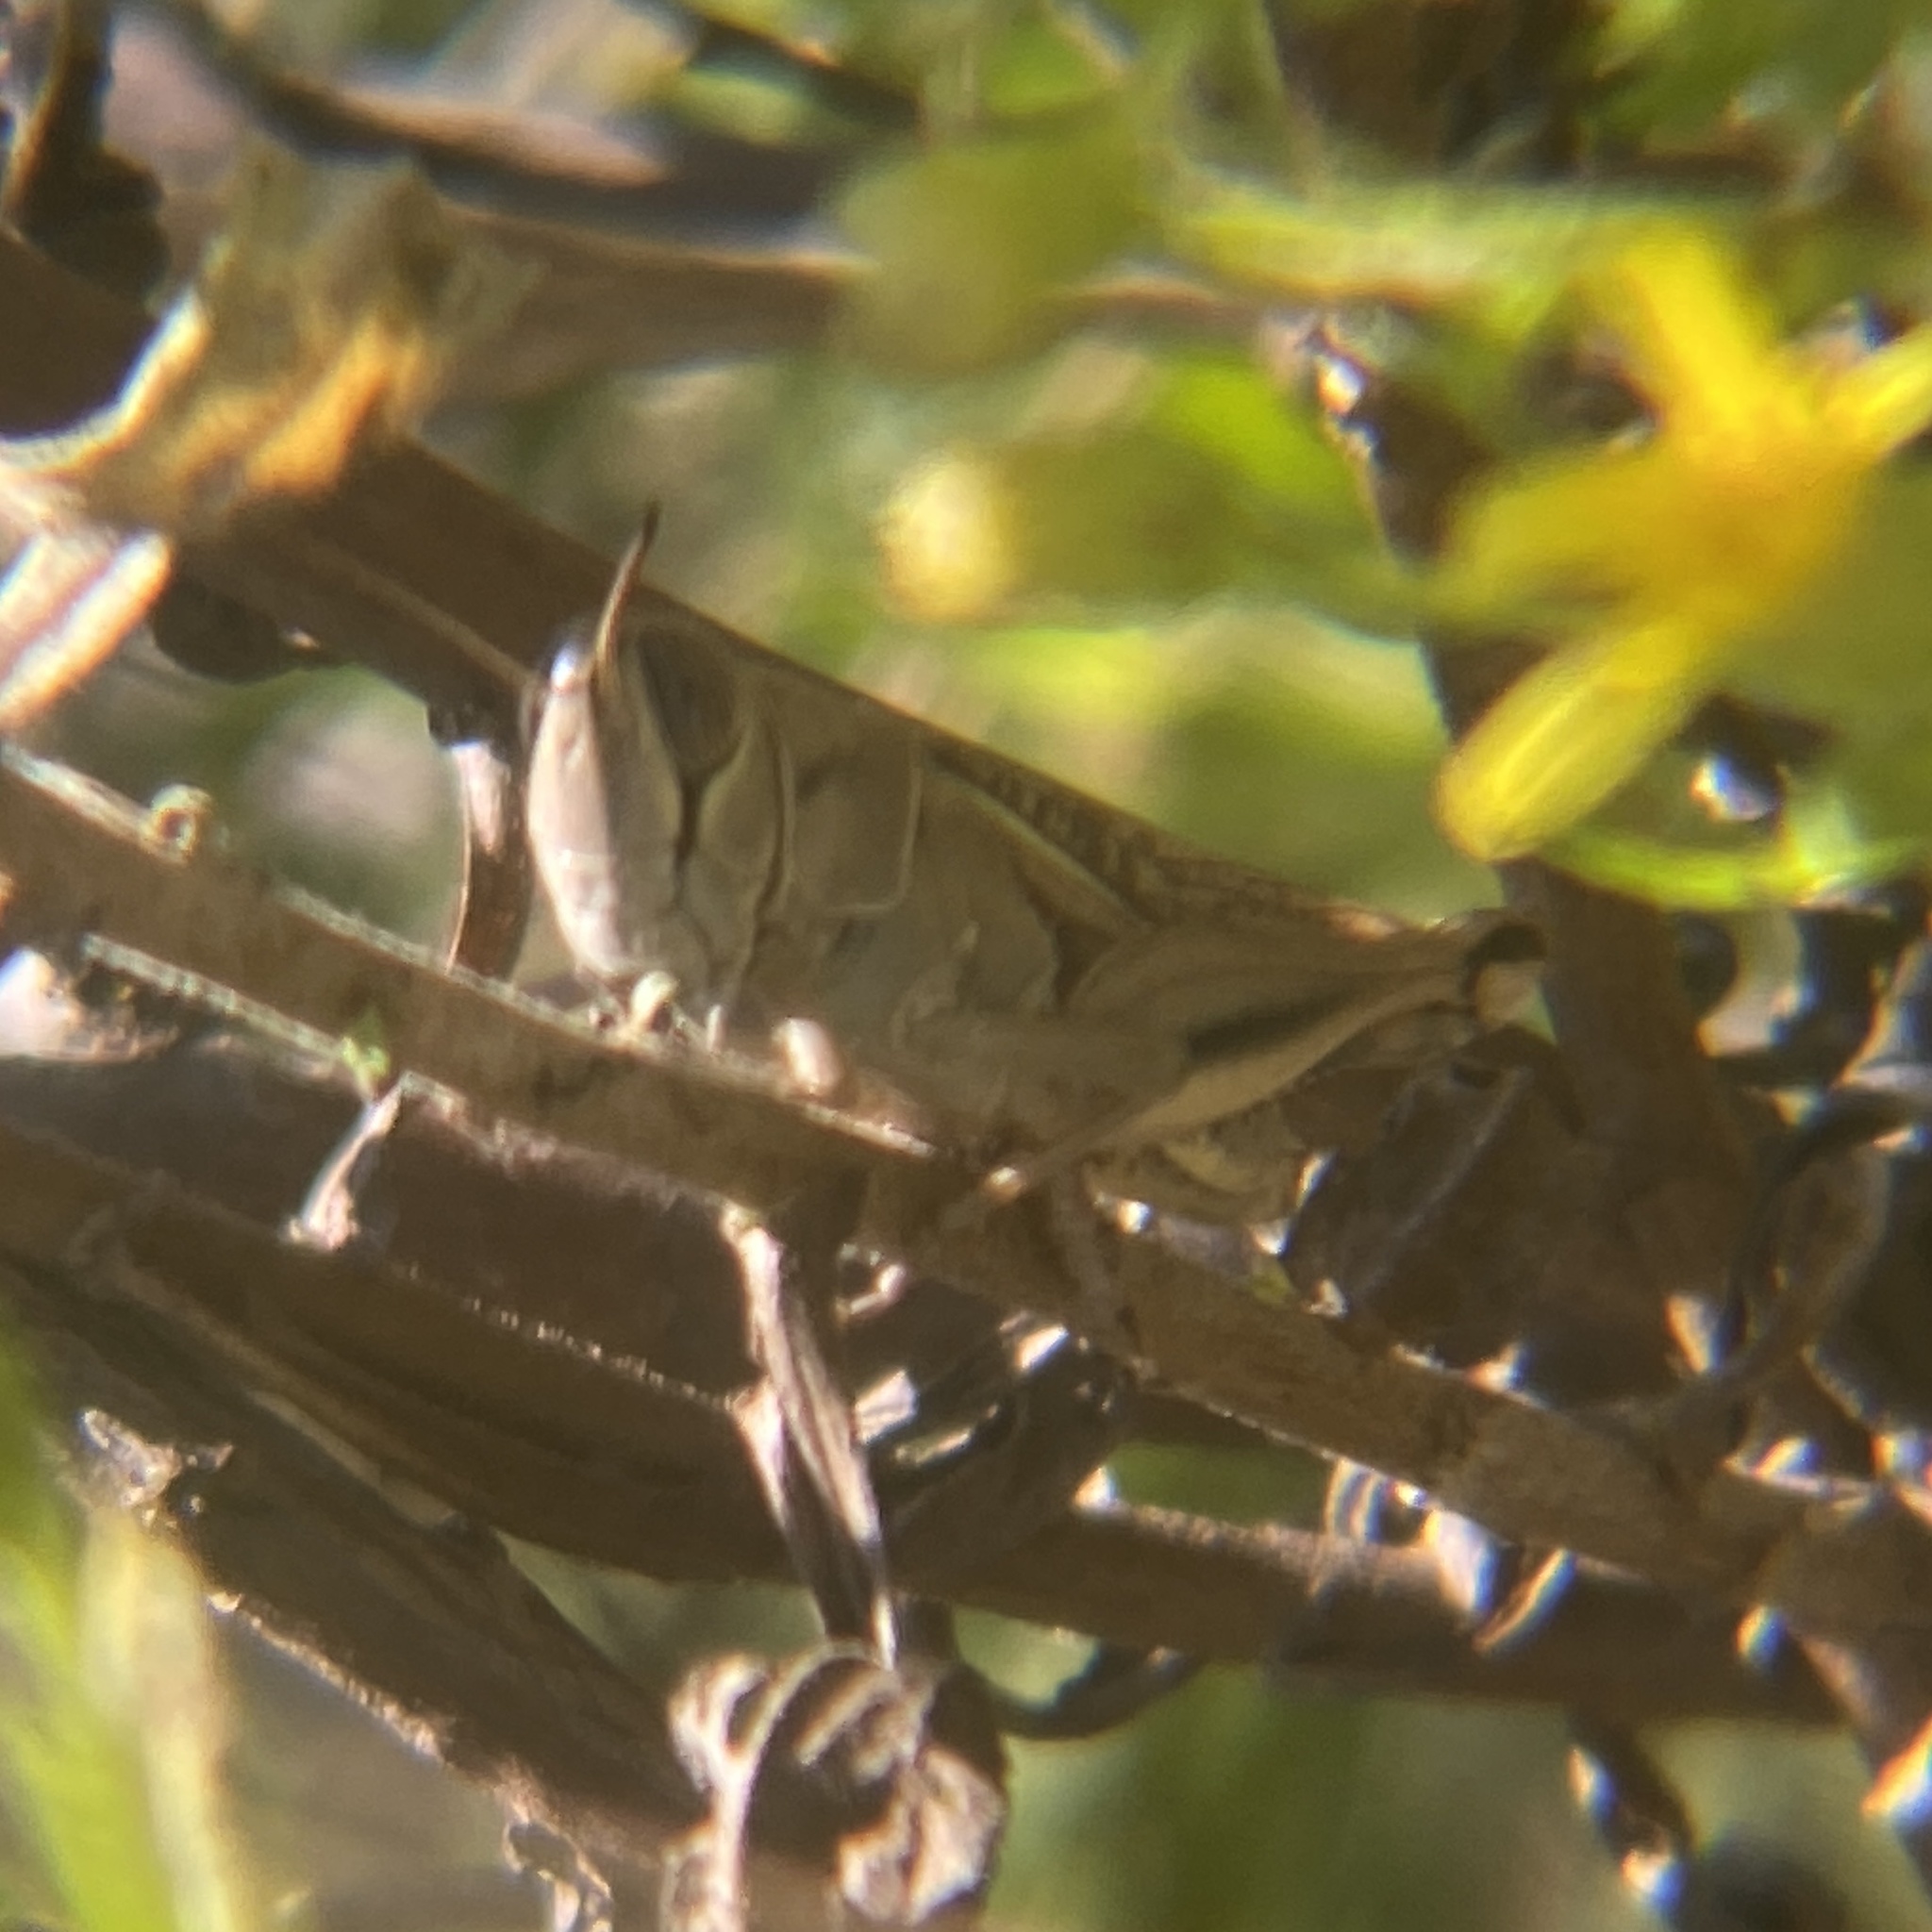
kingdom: Animalia
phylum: Arthropoda
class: Insecta
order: Orthoptera
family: Acrididae
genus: Eyprepocnemis
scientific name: Eyprepocnemis plorans
